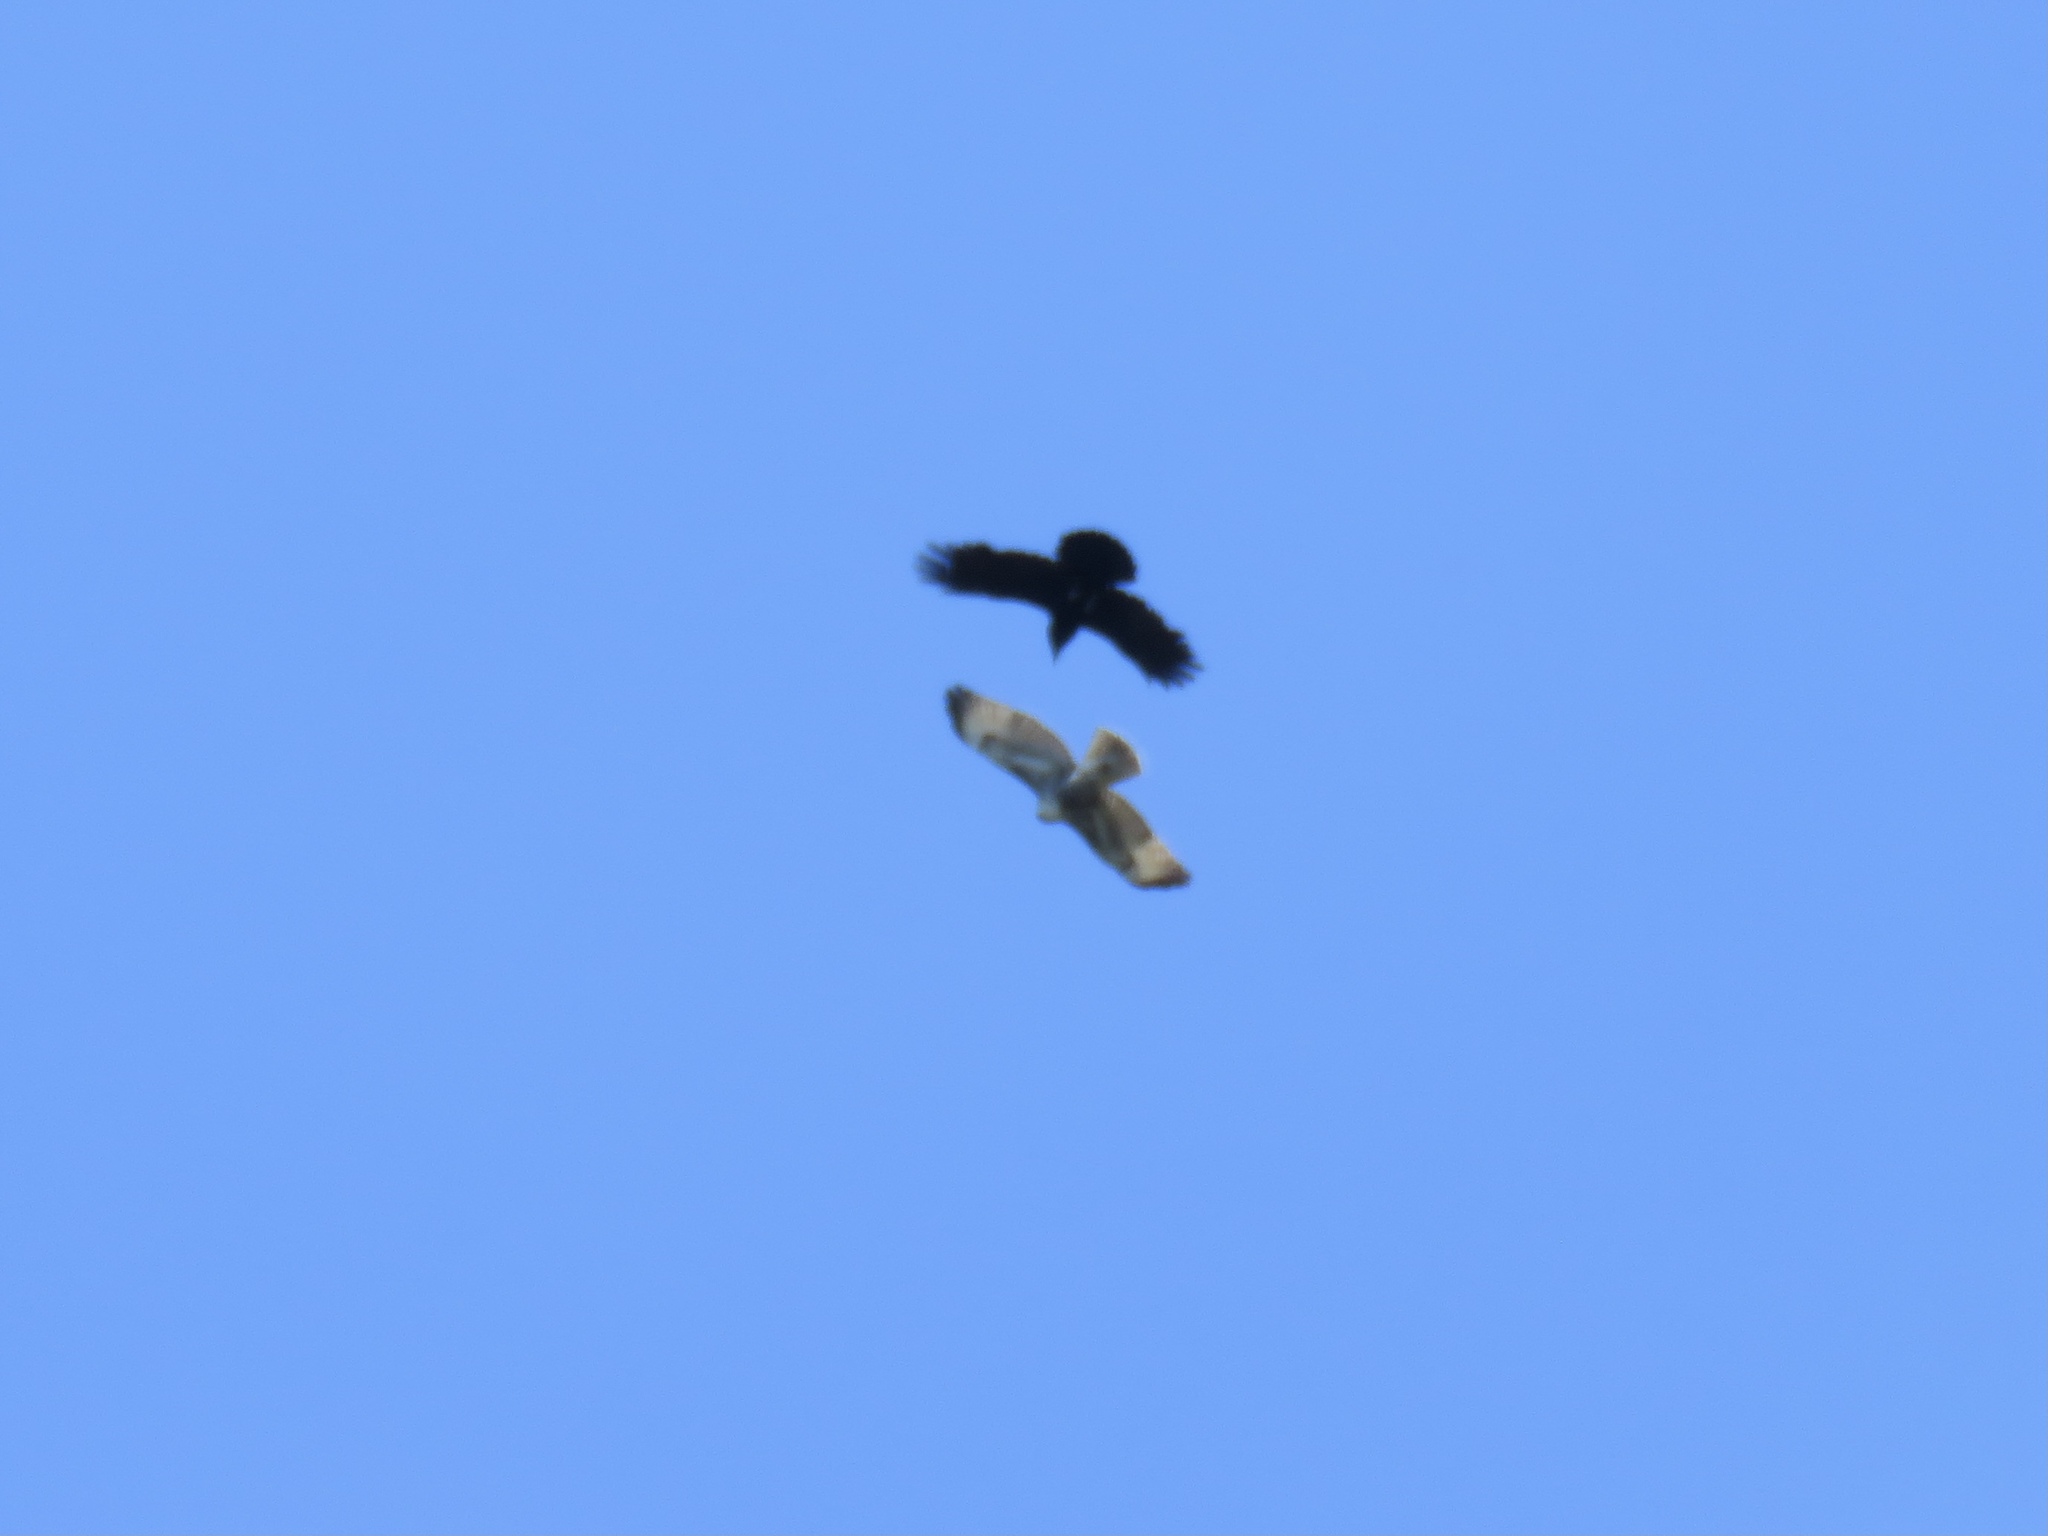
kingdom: Animalia
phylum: Chordata
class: Aves
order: Passeriformes
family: Corvidae
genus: Corvus
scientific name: Corvus corax
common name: Common raven
